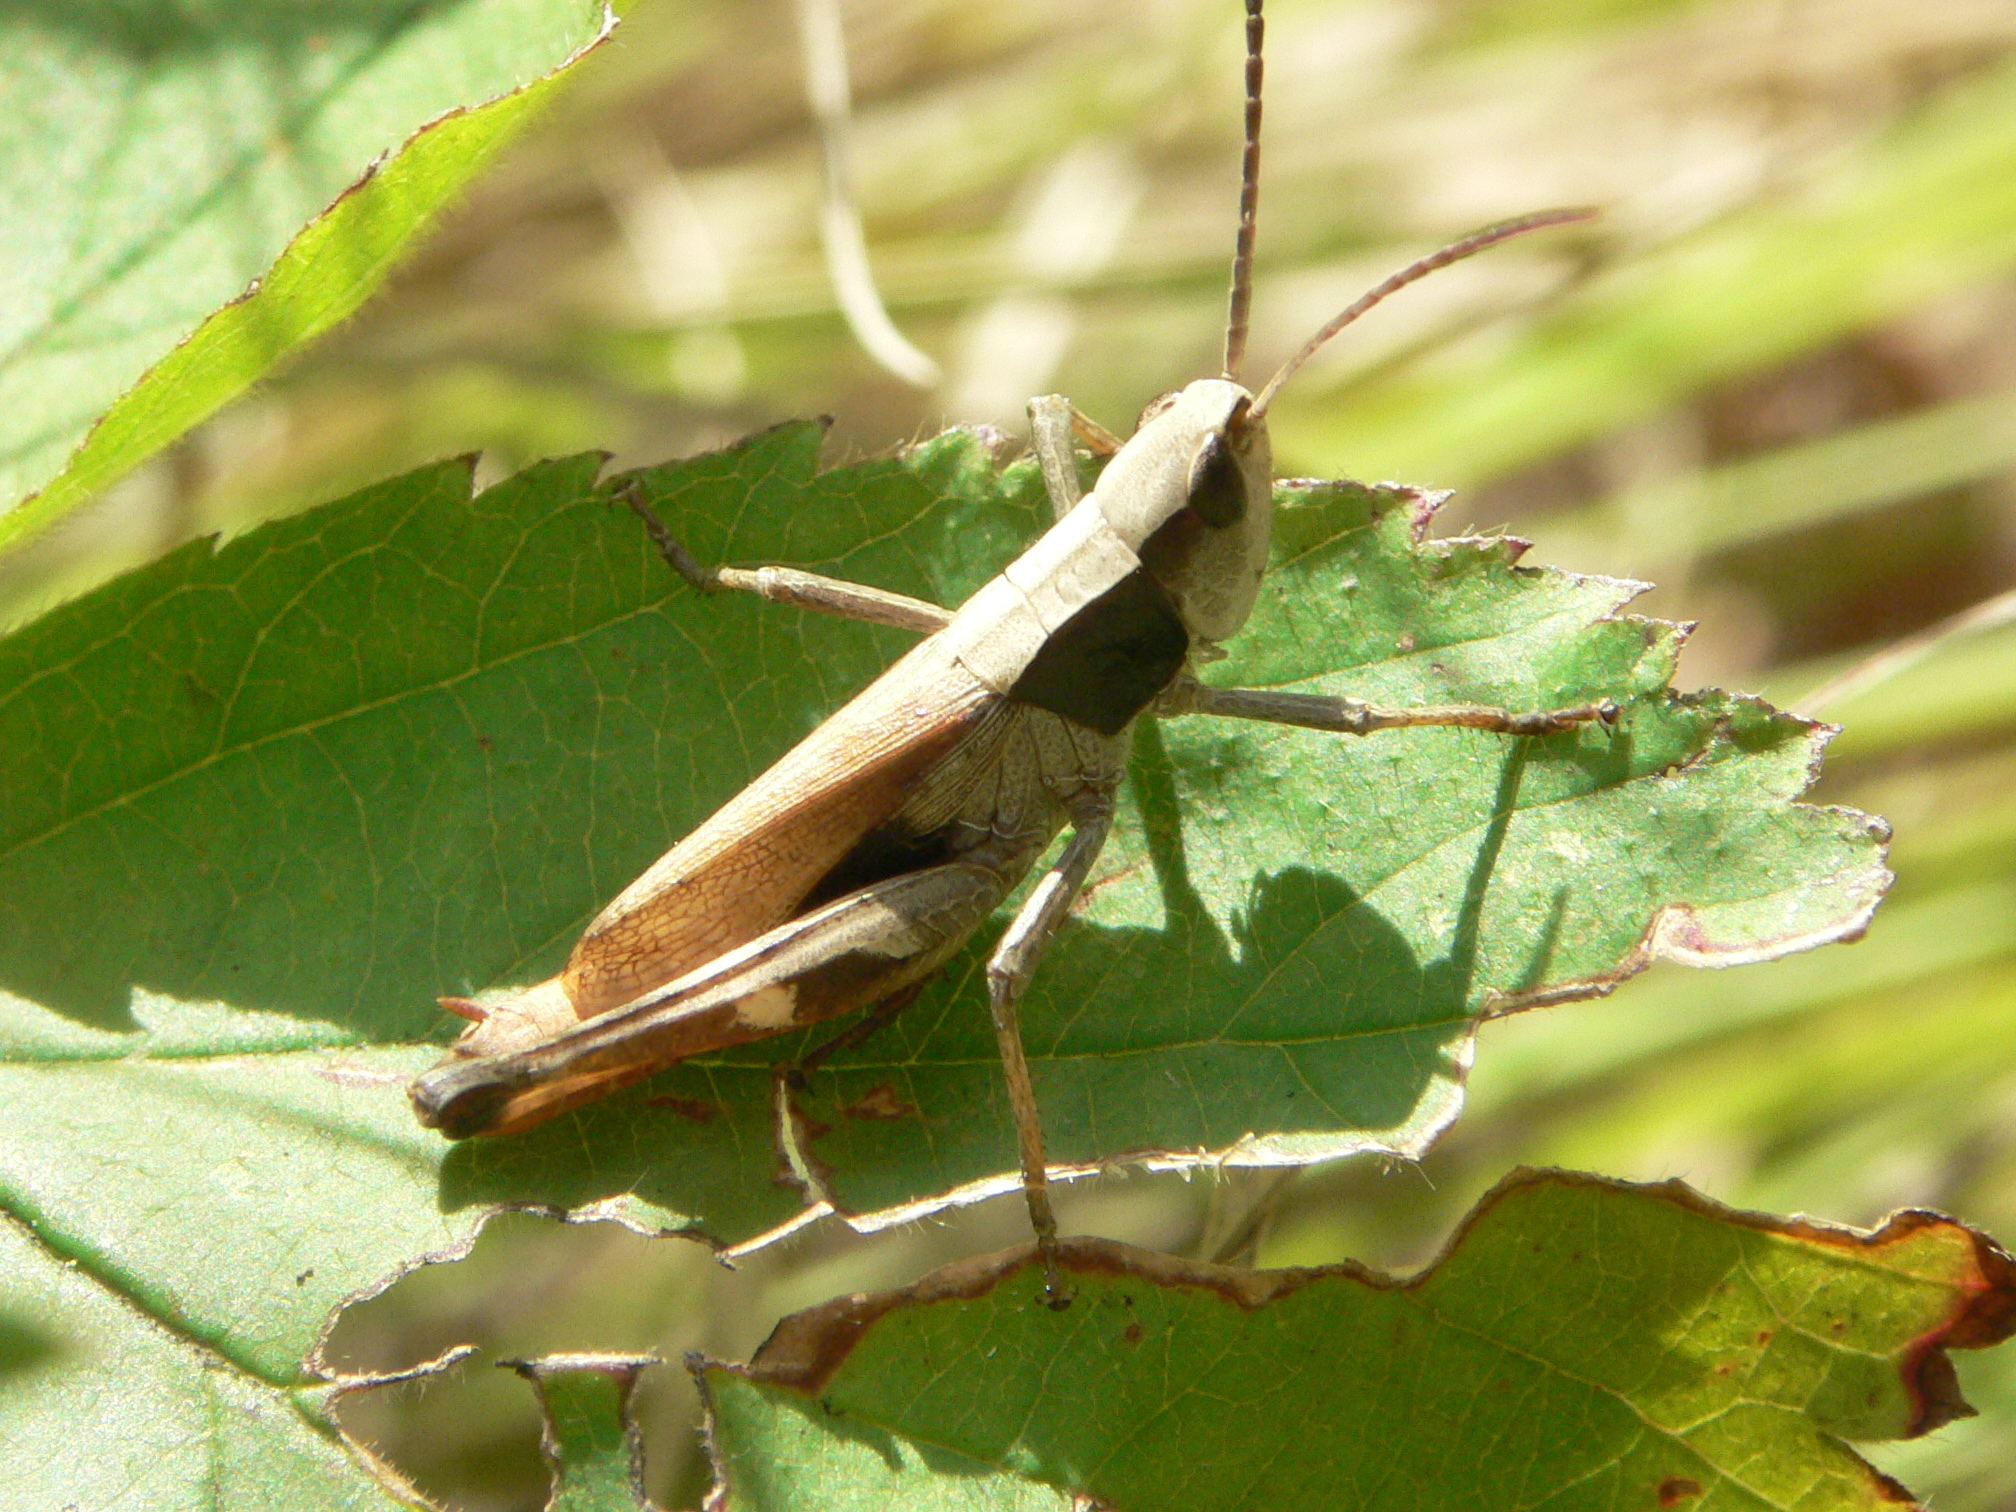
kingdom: Animalia
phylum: Arthropoda
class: Insecta
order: Orthoptera
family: Acrididae
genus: Chloealtis
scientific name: Chloealtis conspersa
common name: Sprinkled broad-winged grasshopper
